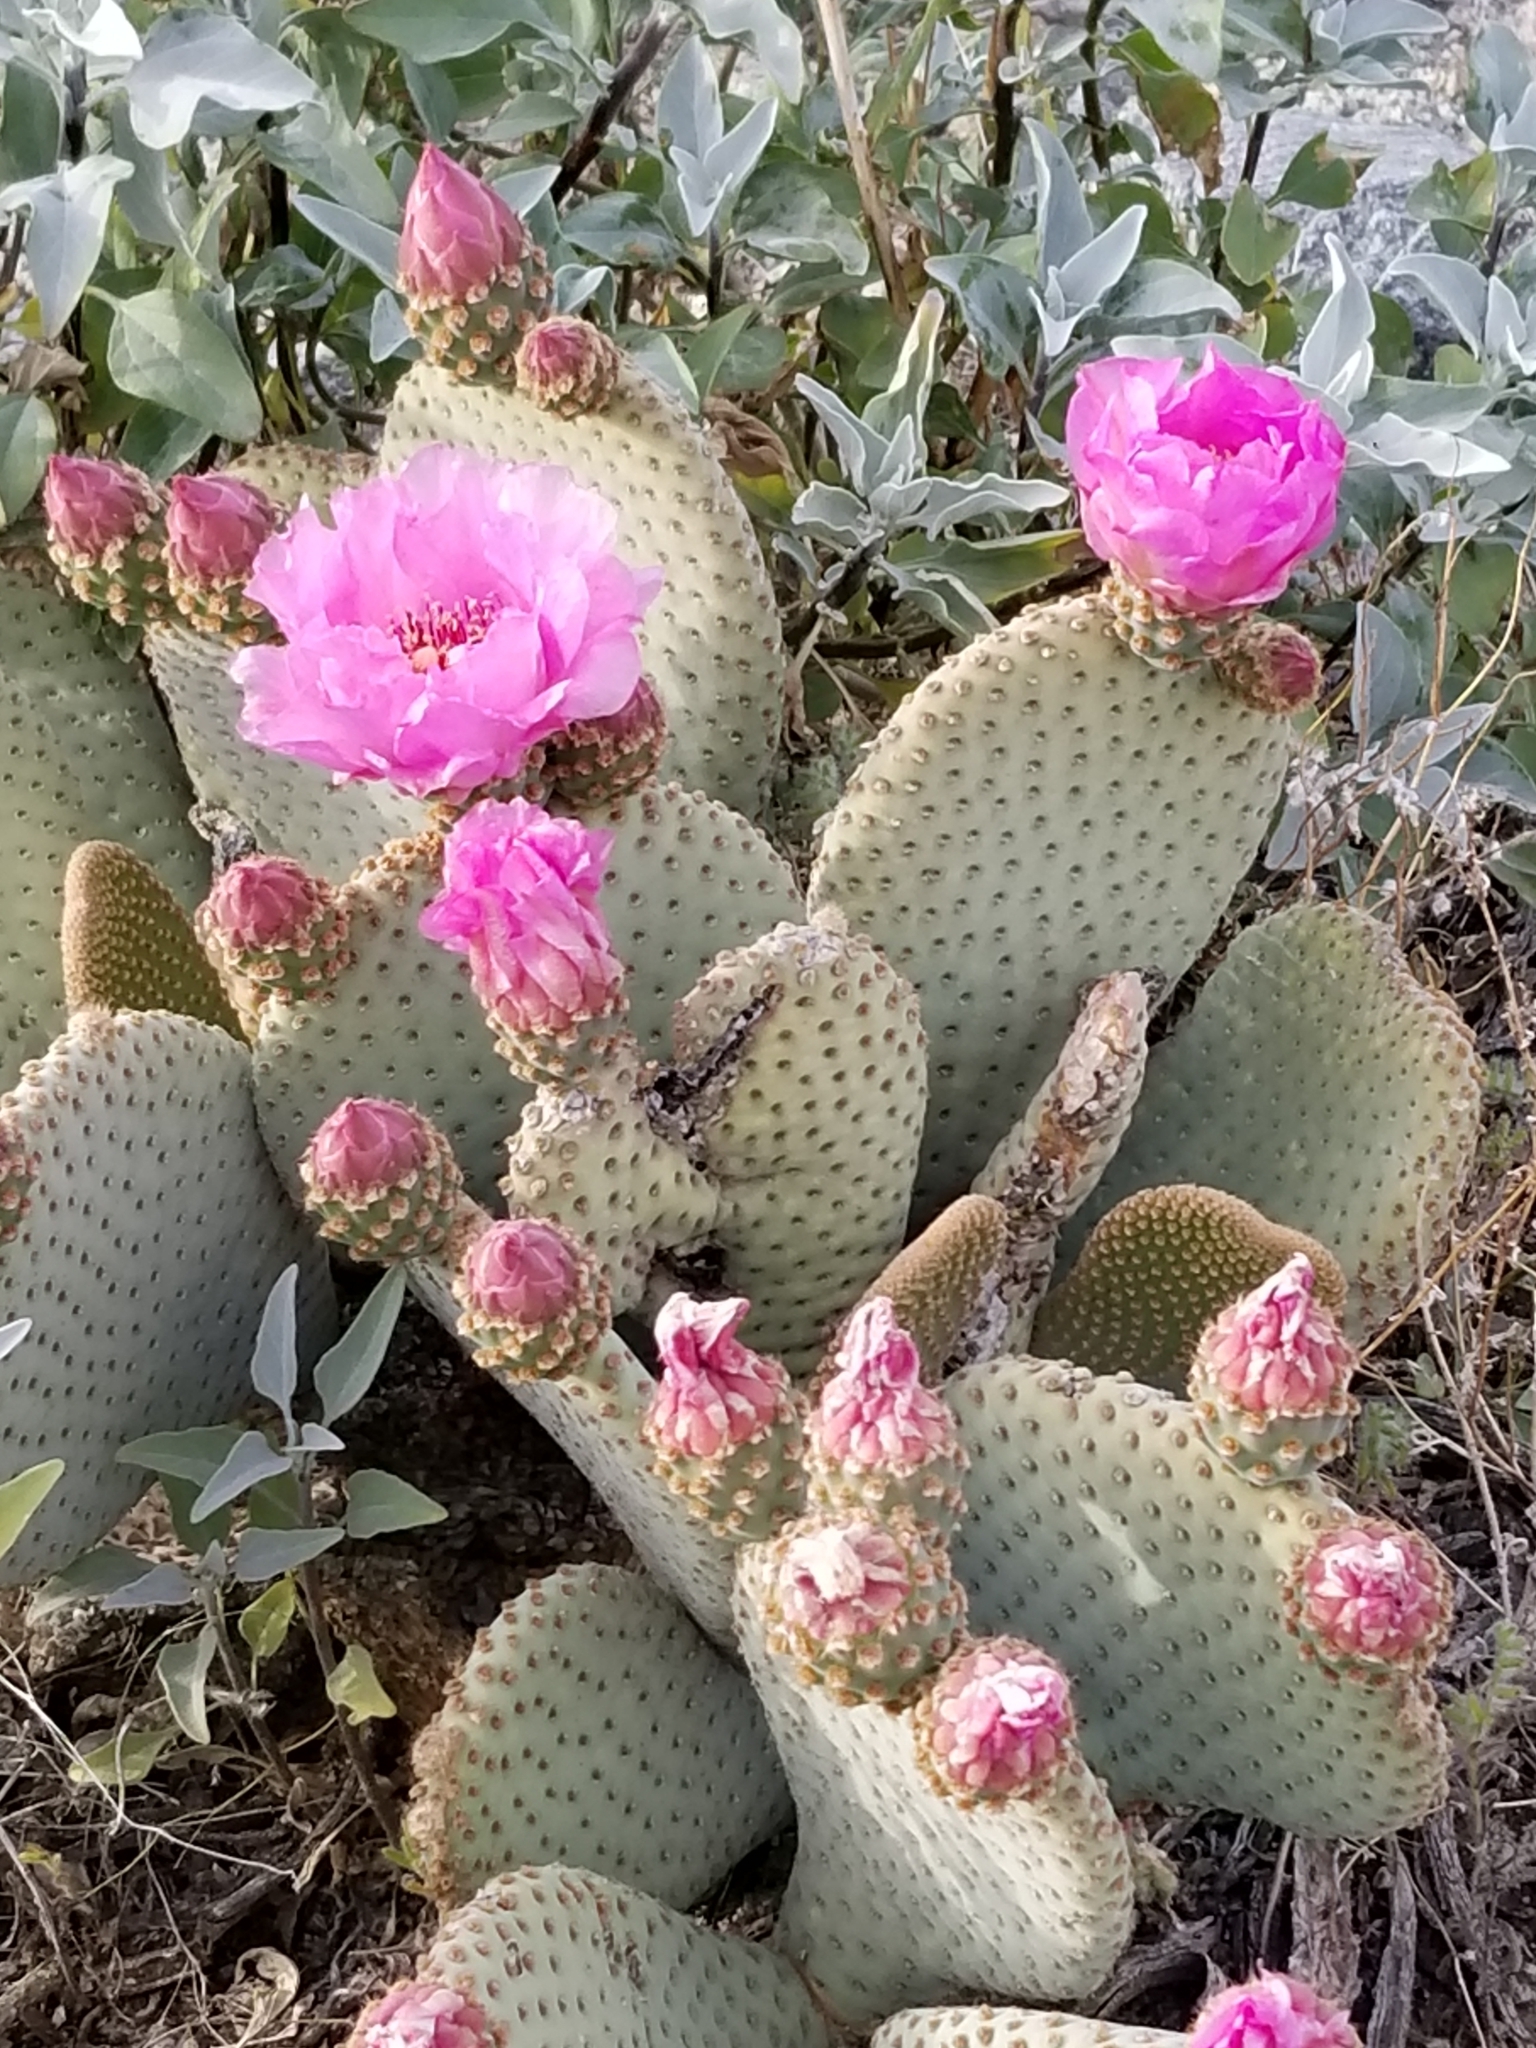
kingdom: Plantae
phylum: Tracheophyta
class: Magnoliopsida
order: Caryophyllales
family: Cactaceae
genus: Opuntia
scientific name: Opuntia basilaris
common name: Beavertail prickly-pear
